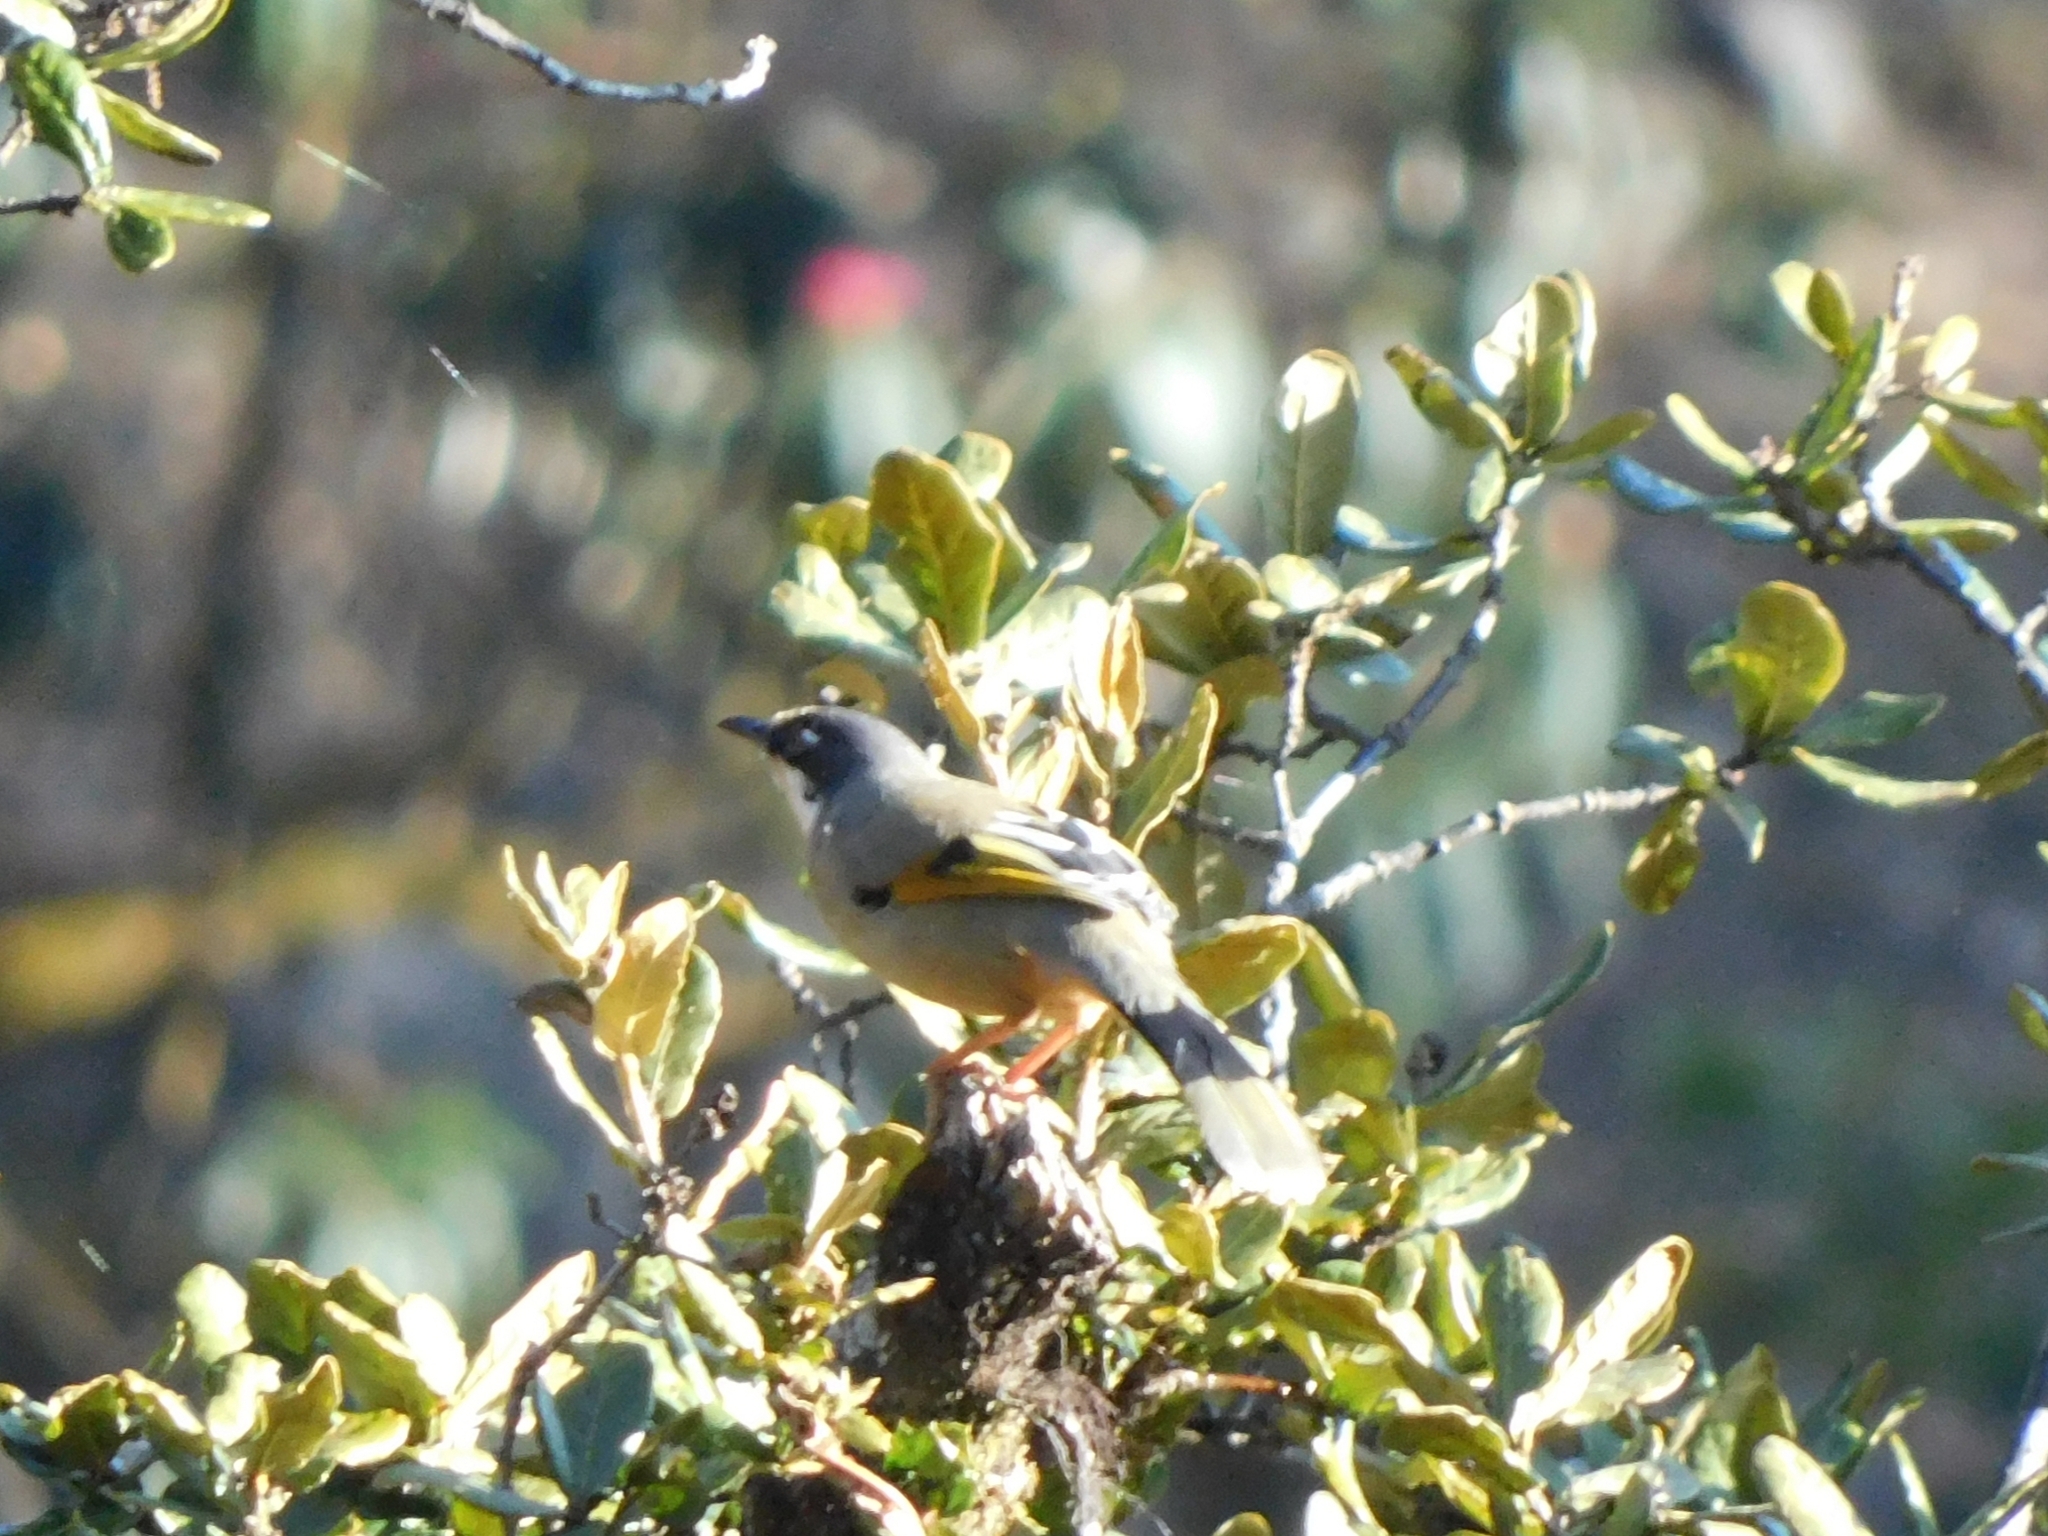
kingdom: Animalia
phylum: Chordata
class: Aves
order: Passeriformes
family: Leiothrichidae
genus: Trochalopteron
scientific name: Trochalopteron variegatum
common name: Variegated laughingthrush
